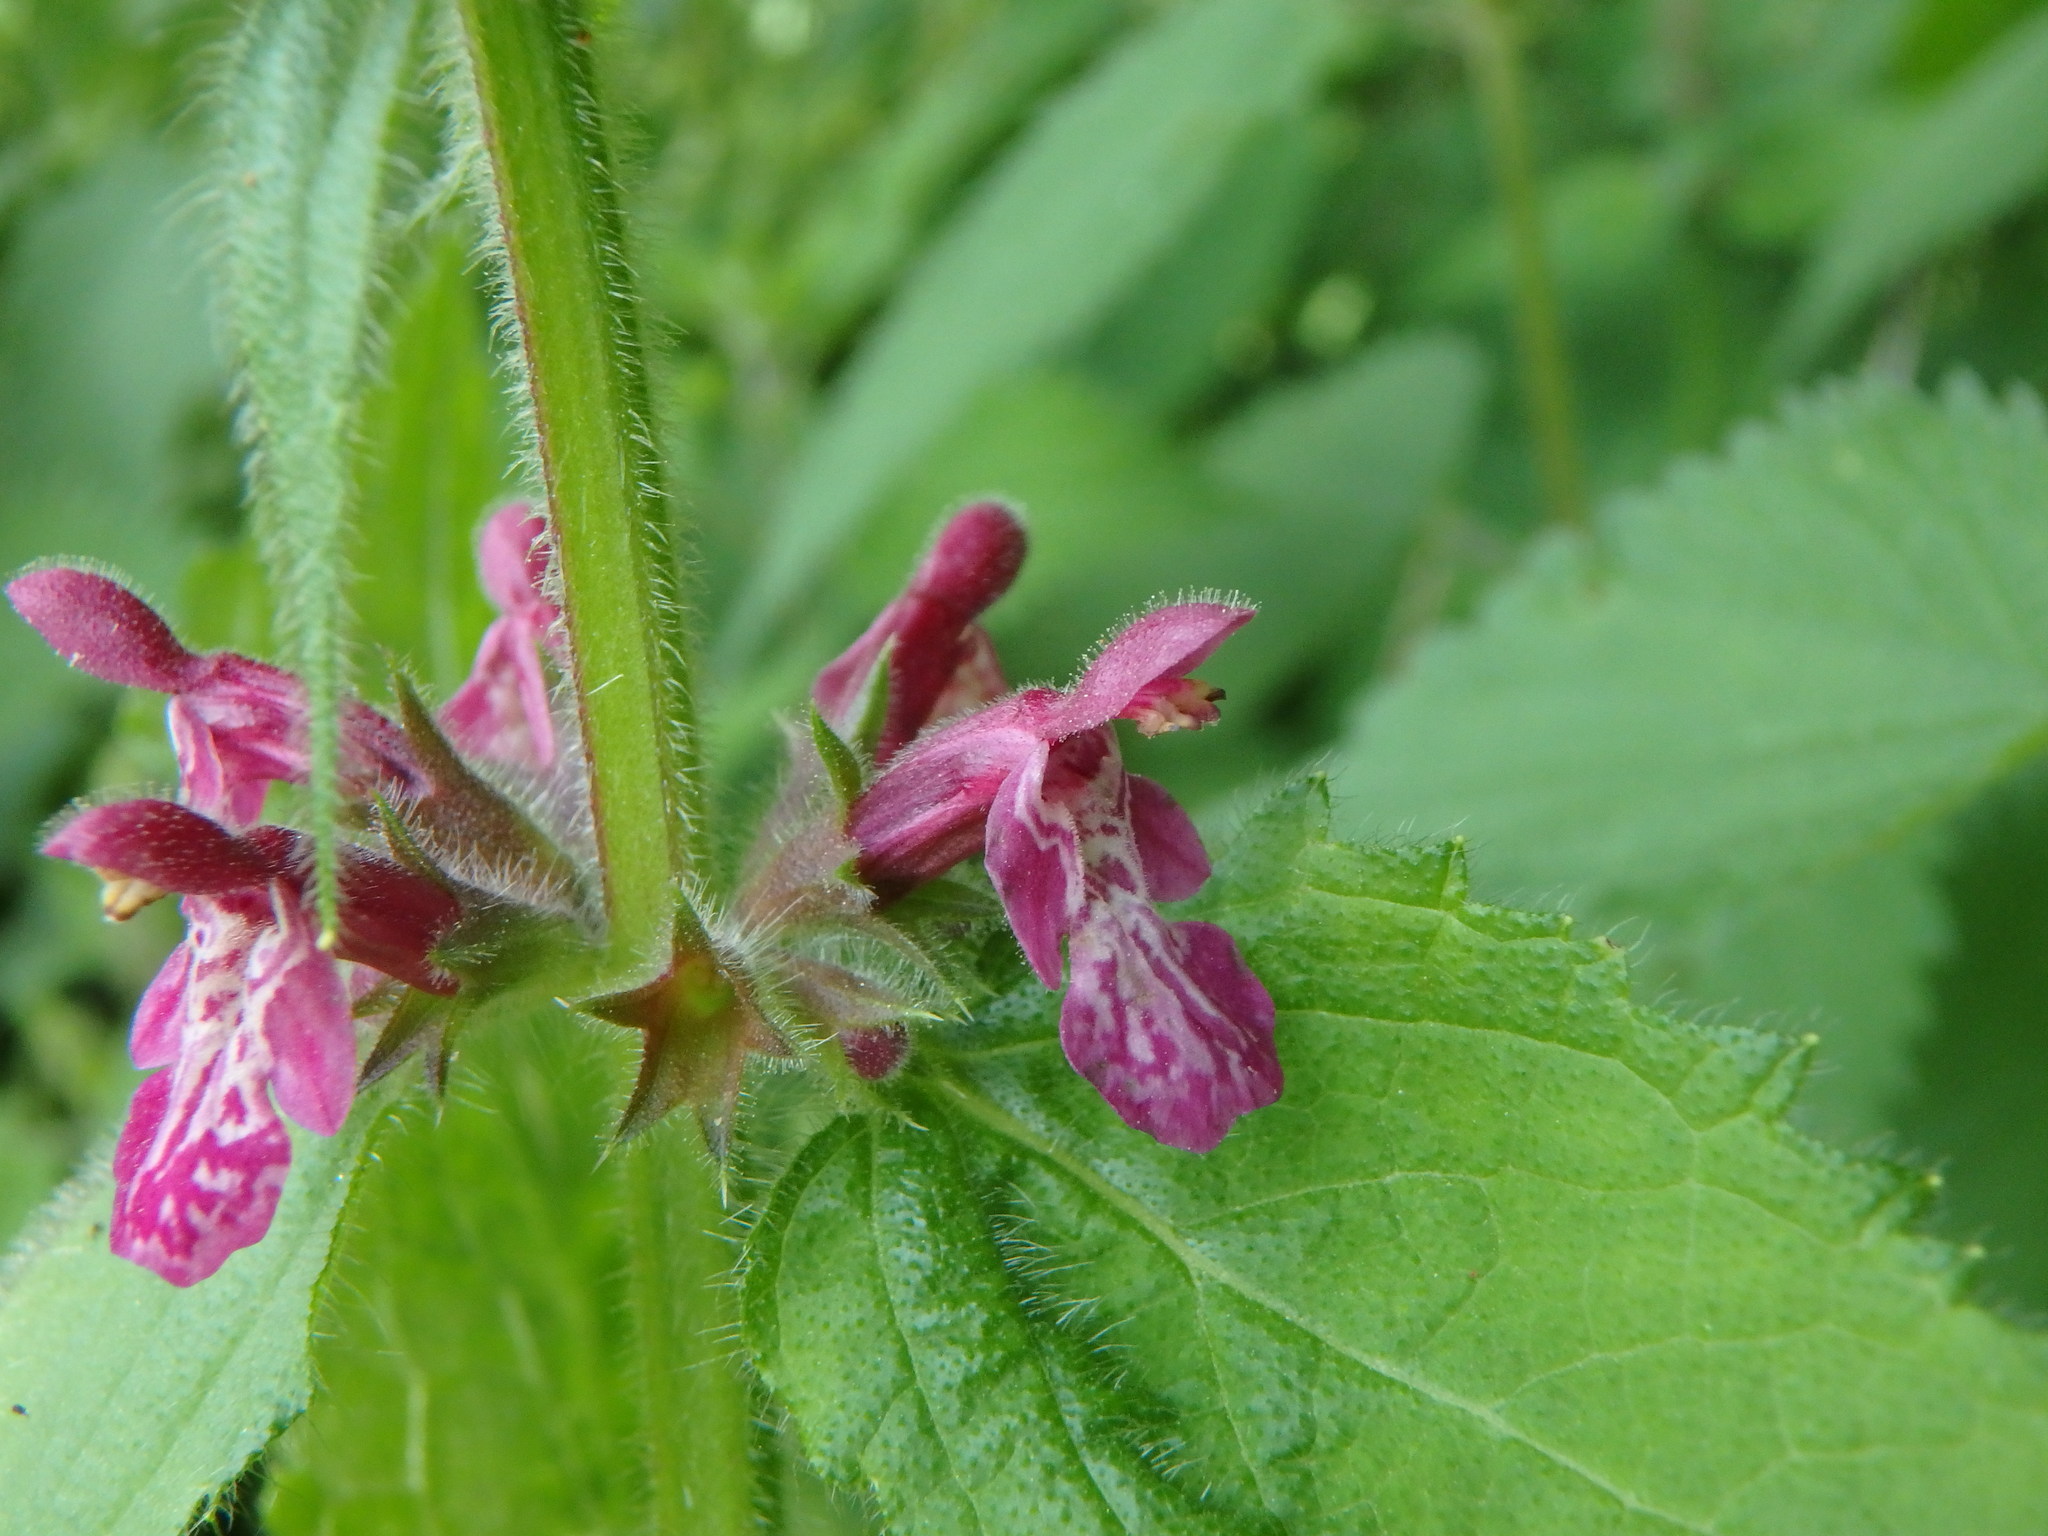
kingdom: Plantae
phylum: Tracheophyta
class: Magnoliopsida
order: Lamiales
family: Lamiaceae
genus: Stachys
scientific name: Stachys sylvatica
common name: Hedge woundwort
